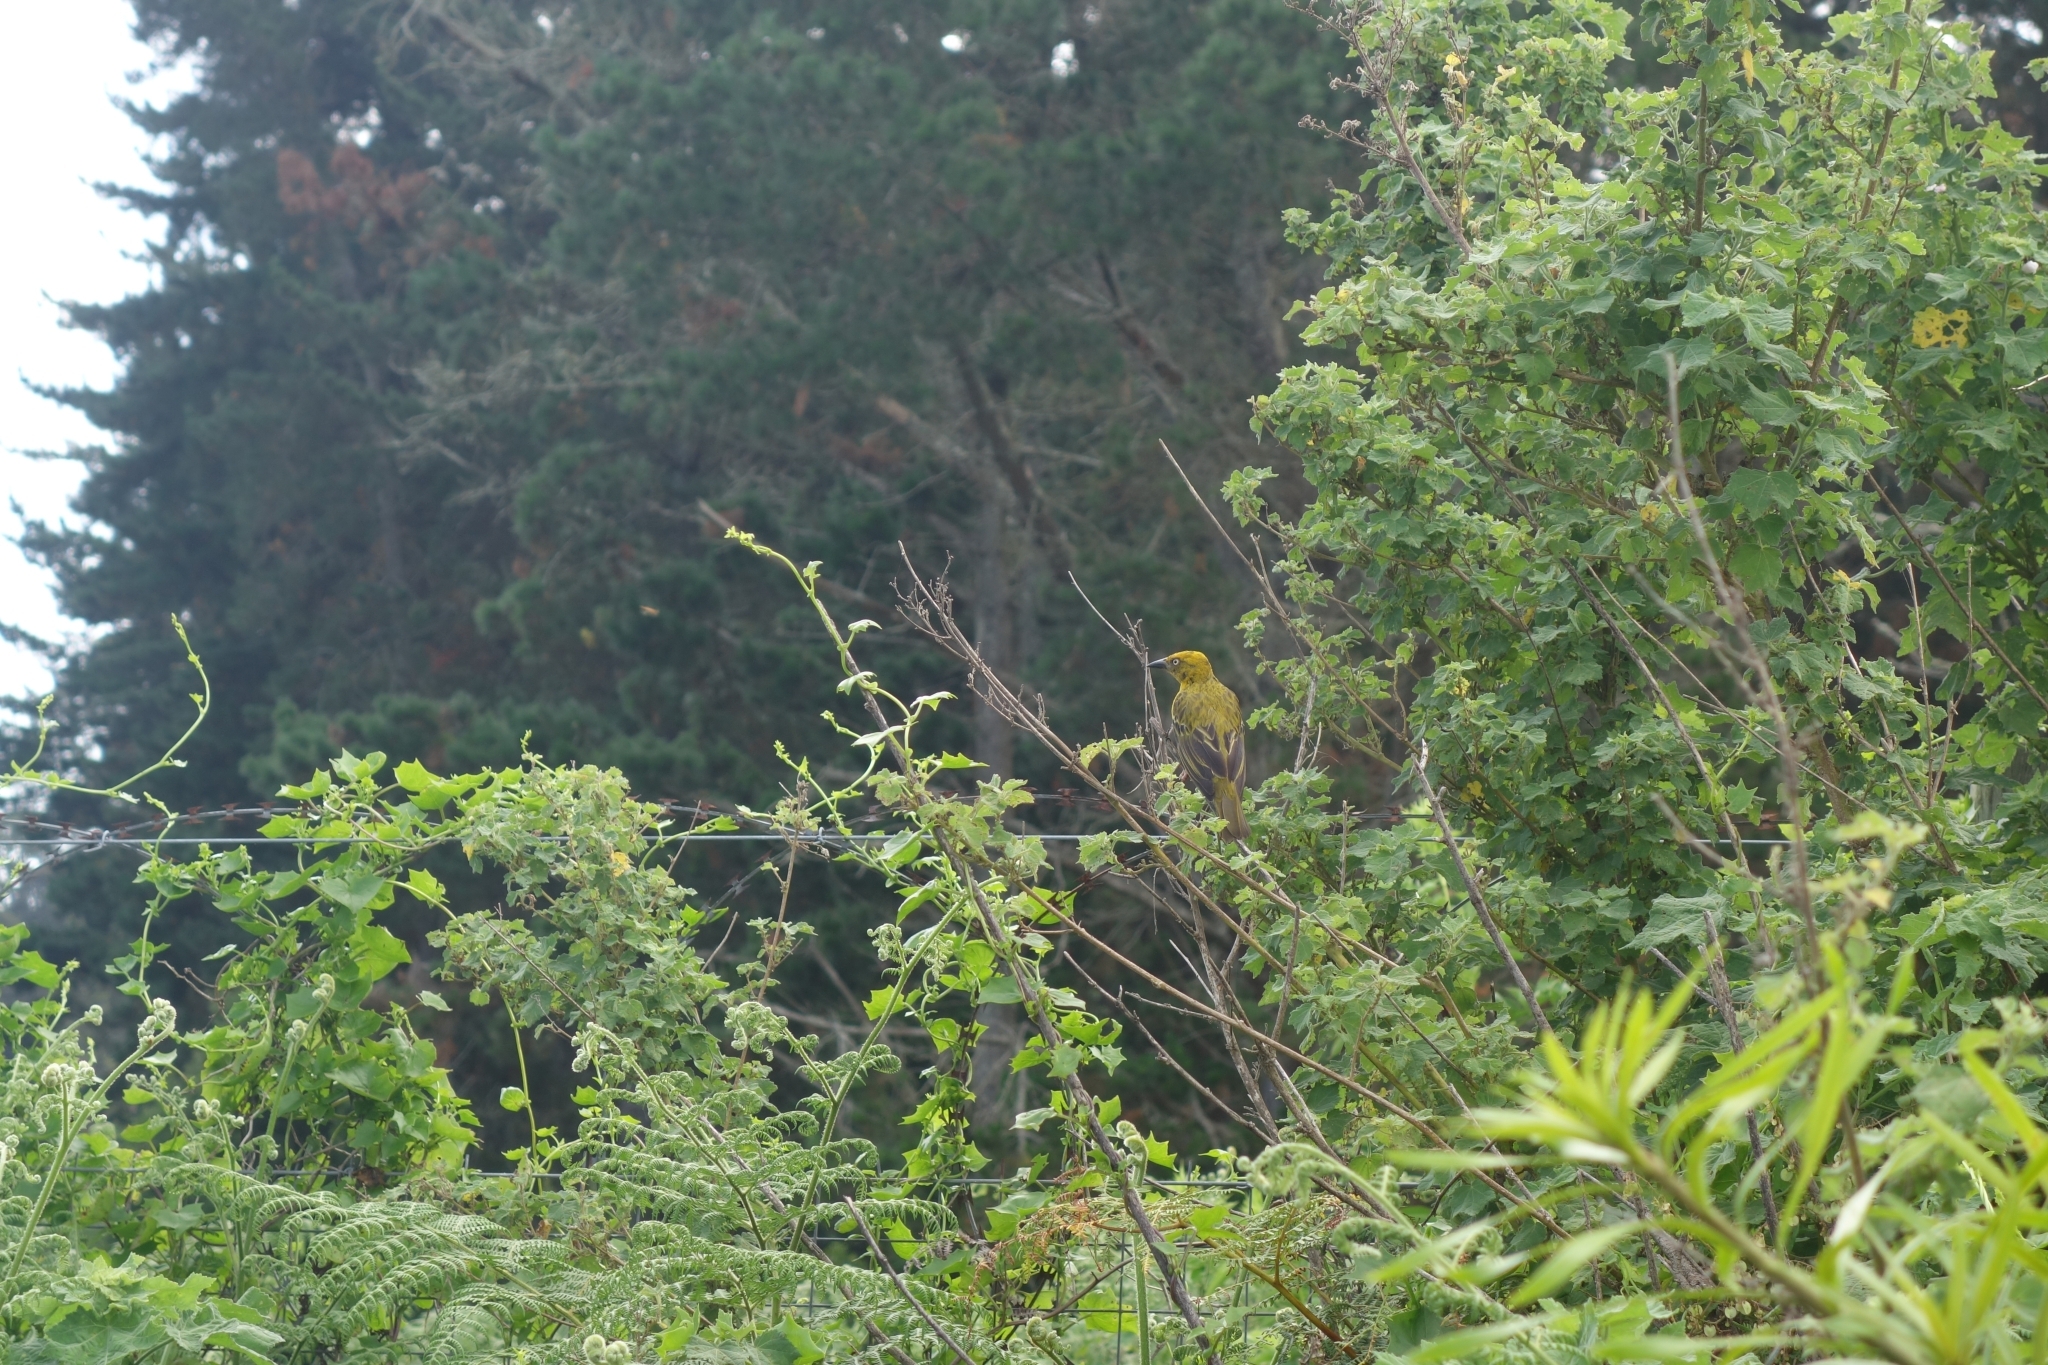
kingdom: Animalia
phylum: Chordata
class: Aves
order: Passeriformes
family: Ploceidae
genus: Ploceus
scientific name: Ploceus capensis
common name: Cape weaver
